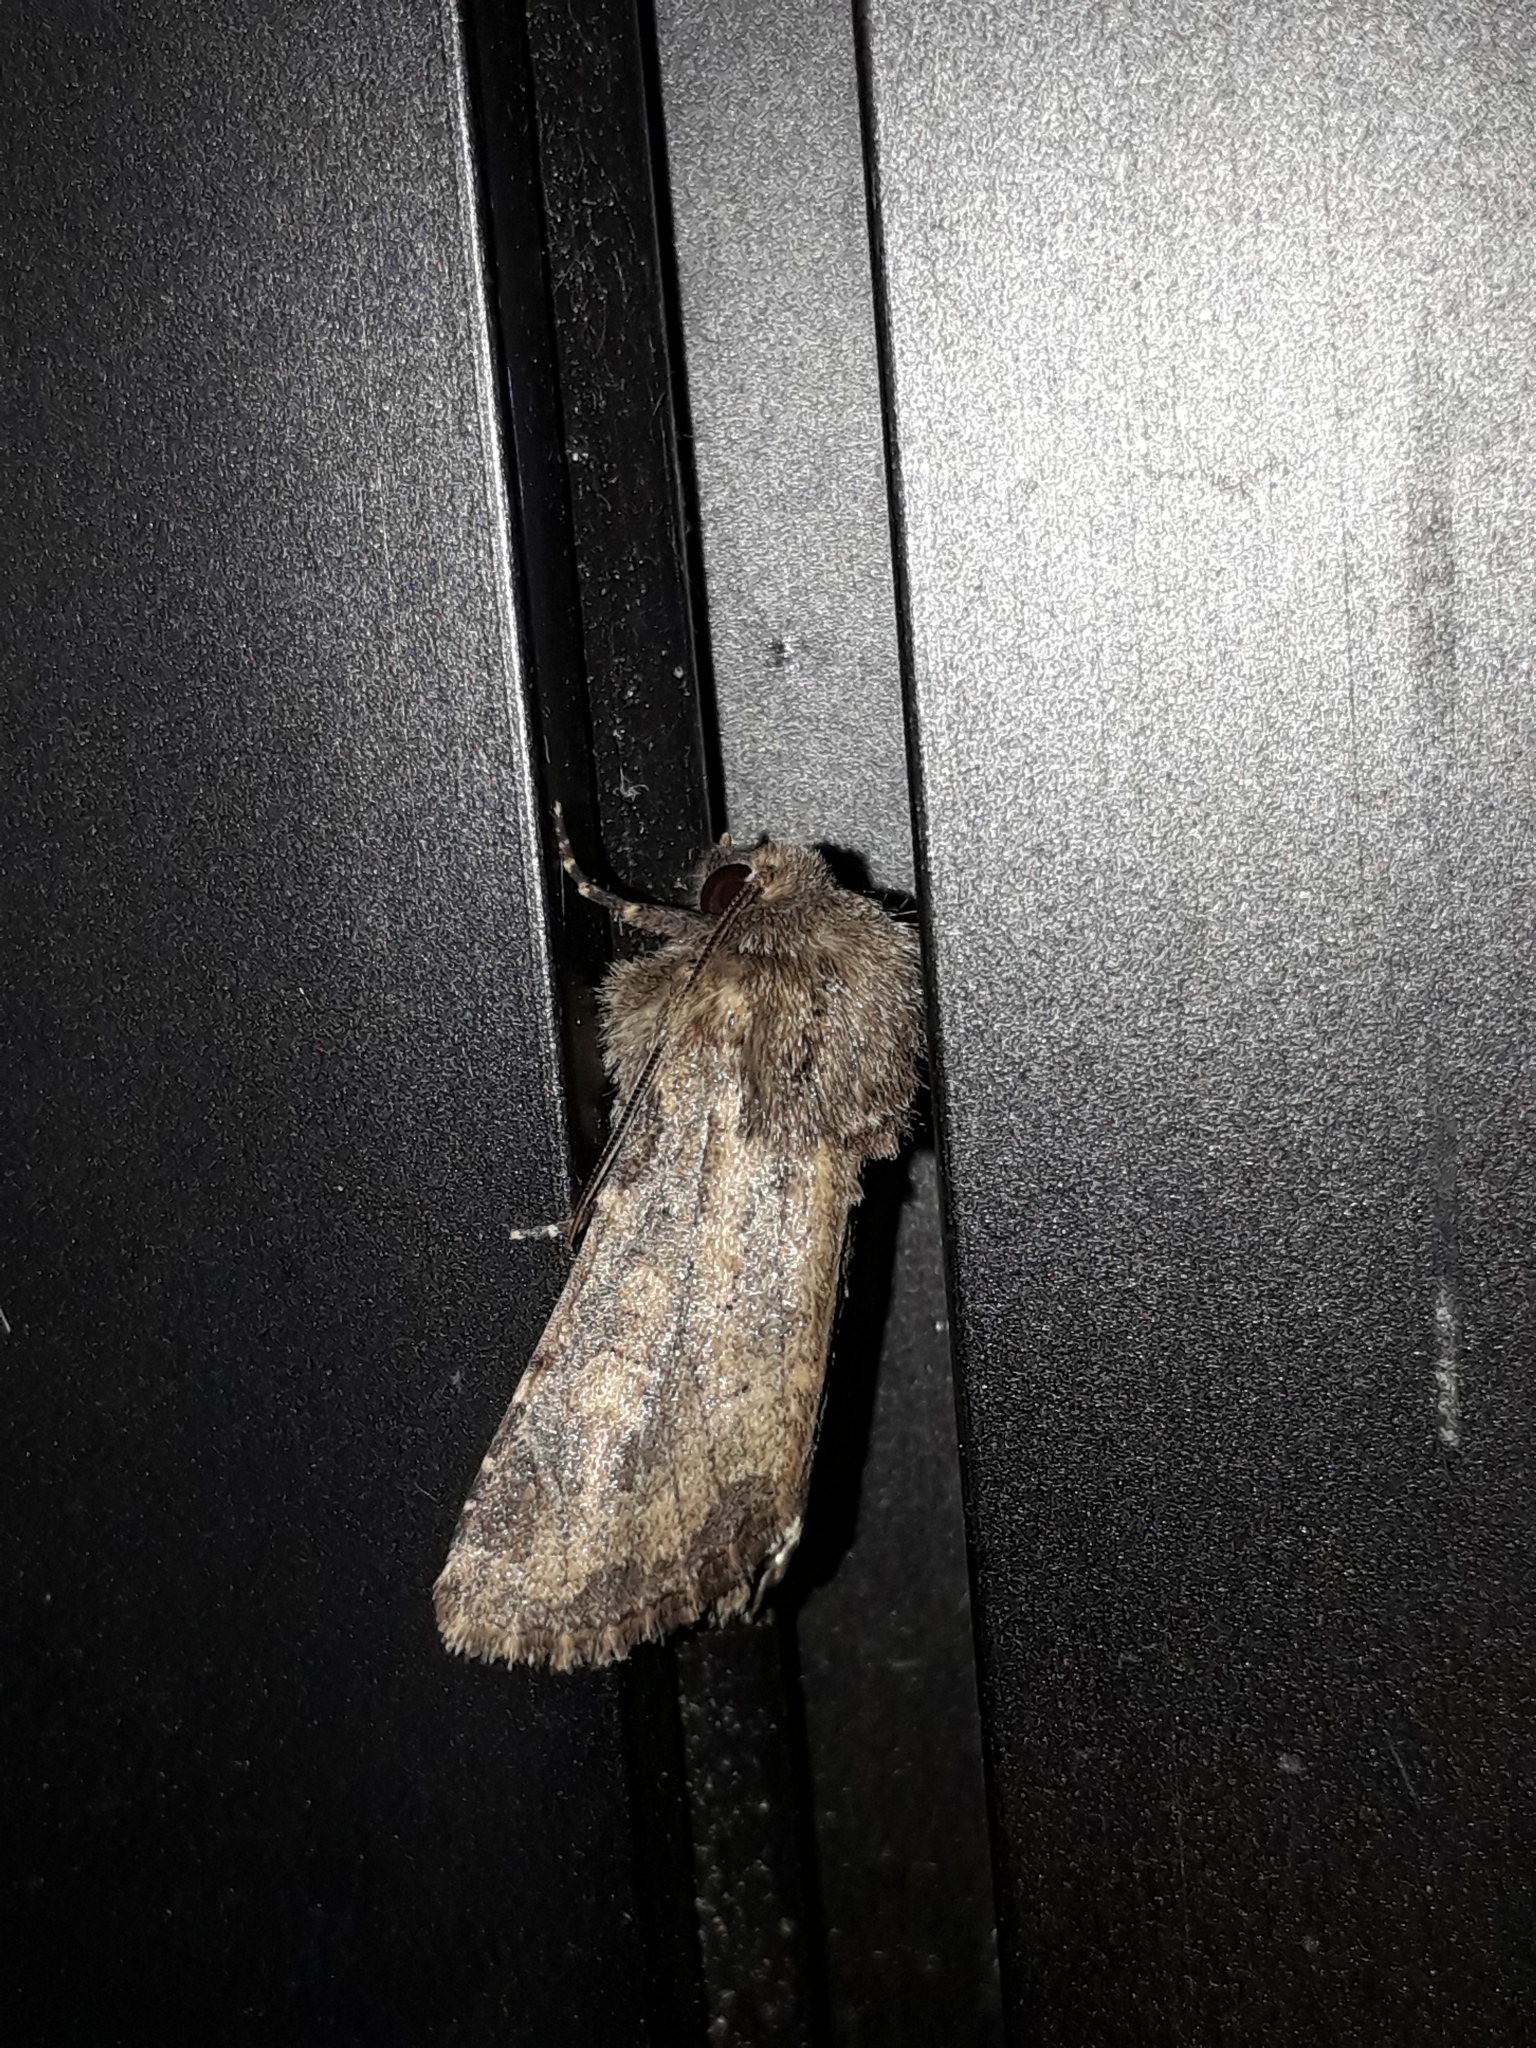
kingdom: Animalia
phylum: Arthropoda
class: Insecta
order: Lepidoptera
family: Noctuidae
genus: Luperina
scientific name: Luperina testacea
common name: Flounced rustic
